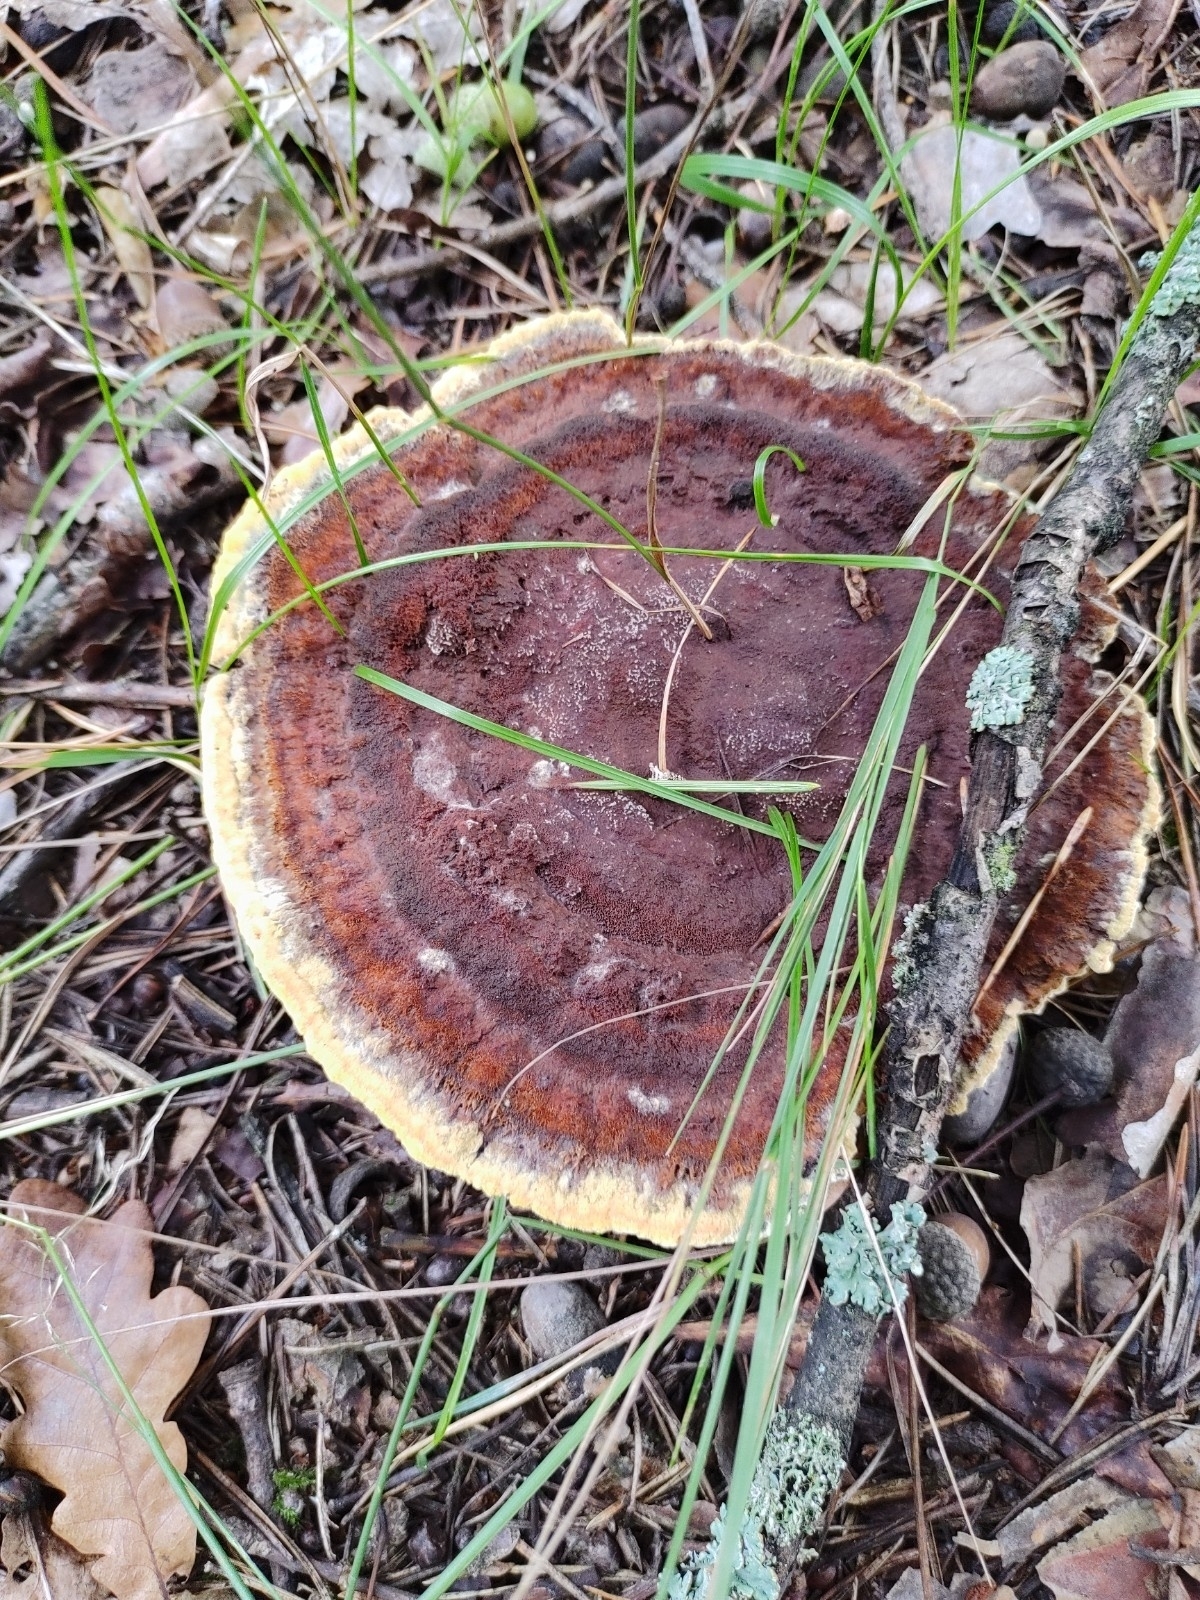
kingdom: Fungi
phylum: Basidiomycota
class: Agaricomycetes
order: Polyporales
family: Laetiporaceae
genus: Phaeolus
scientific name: Phaeolus schweinitzii
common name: Dyer's mazegill
